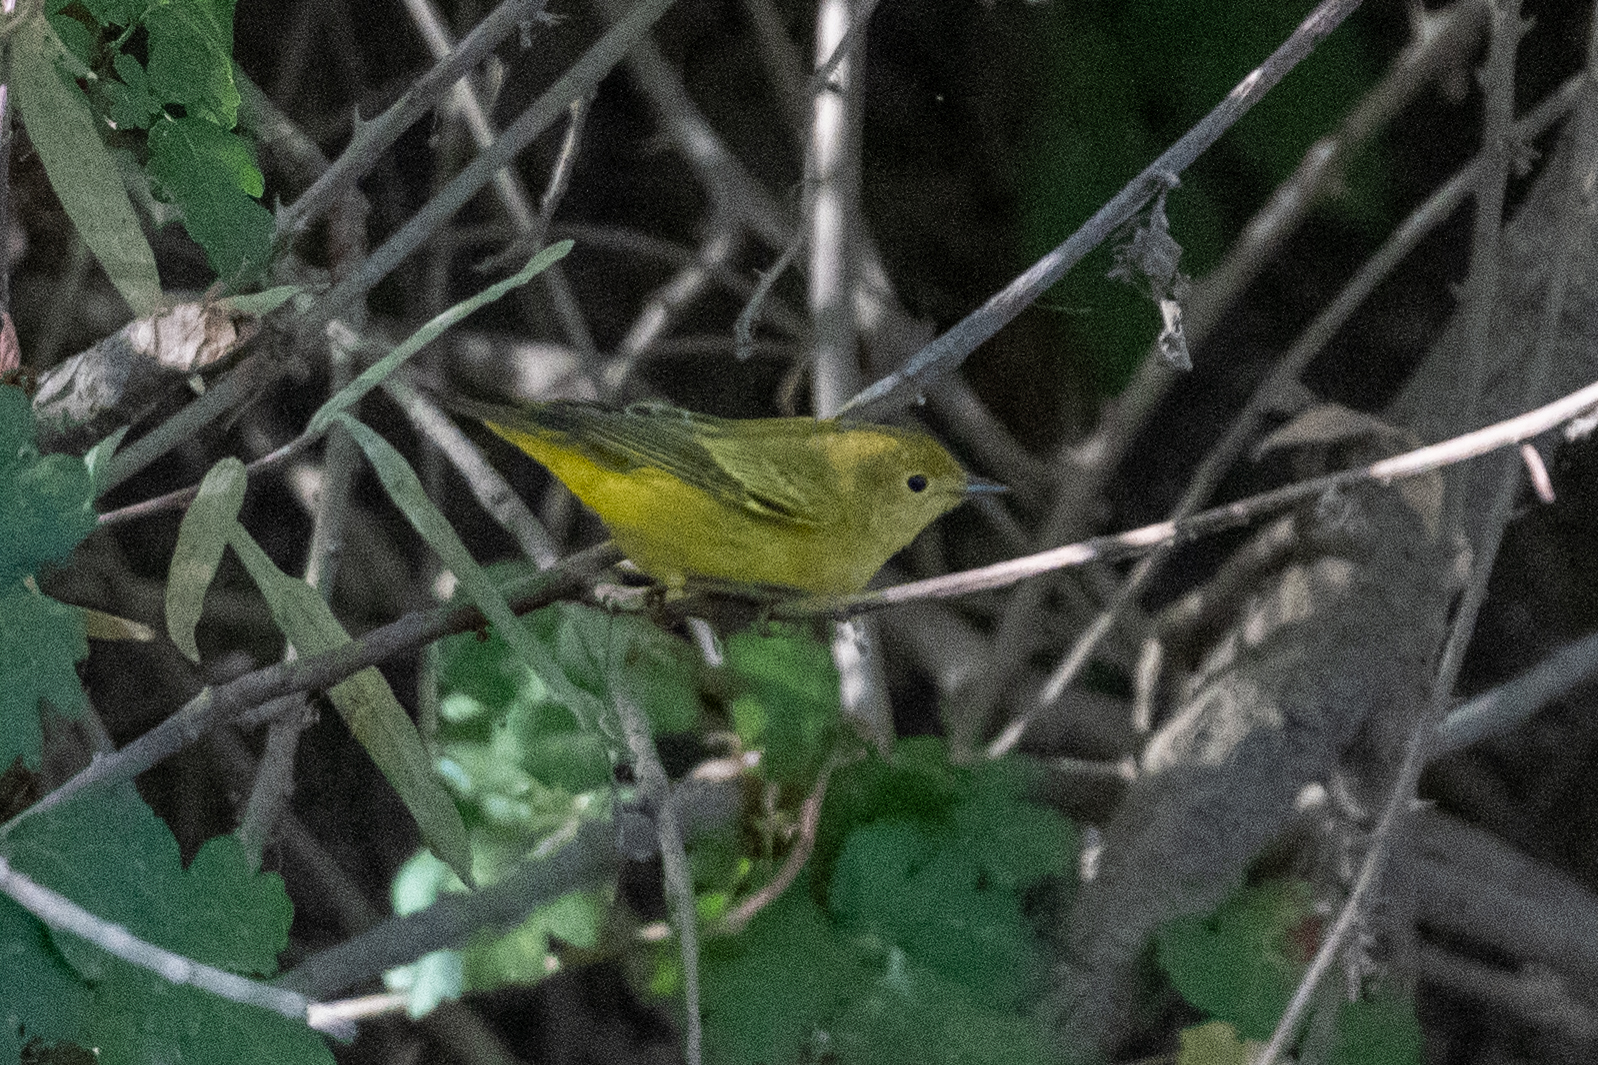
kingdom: Animalia
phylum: Chordata
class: Aves
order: Passeriformes
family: Parulidae
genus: Setophaga
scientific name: Setophaga petechia
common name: Yellow warbler
